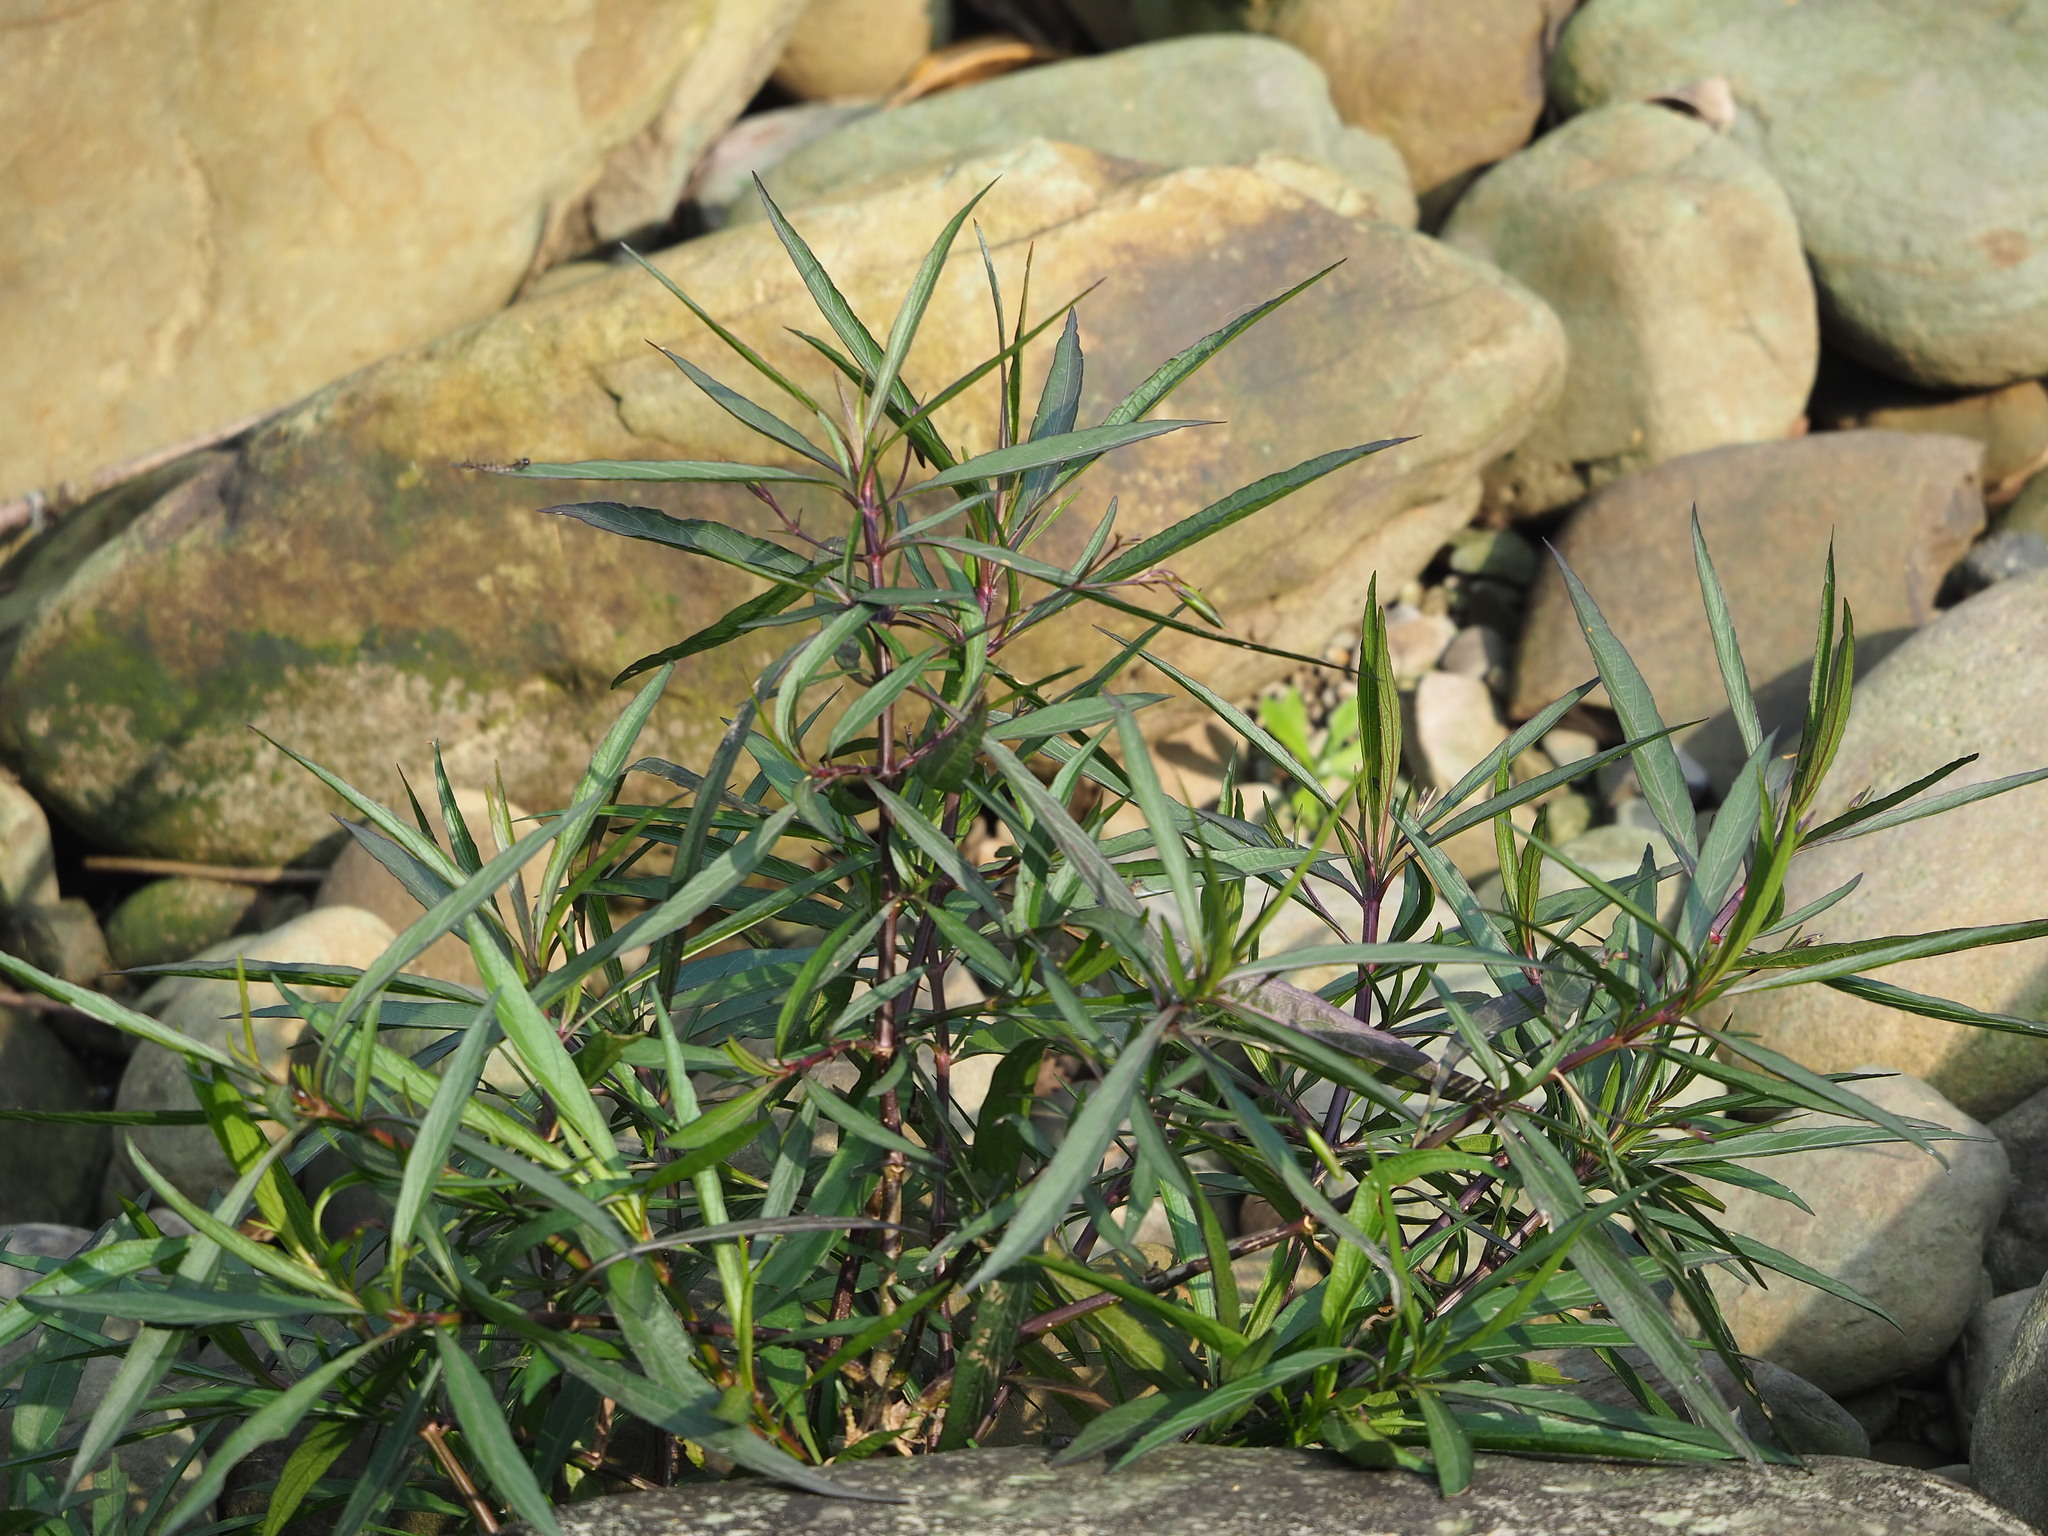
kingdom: Plantae
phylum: Tracheophyta
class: Magnoliopsida
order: Lamiales
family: Acanthaceae
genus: Ruellia
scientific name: Ruellia simplex
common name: Softseed wild petunia
